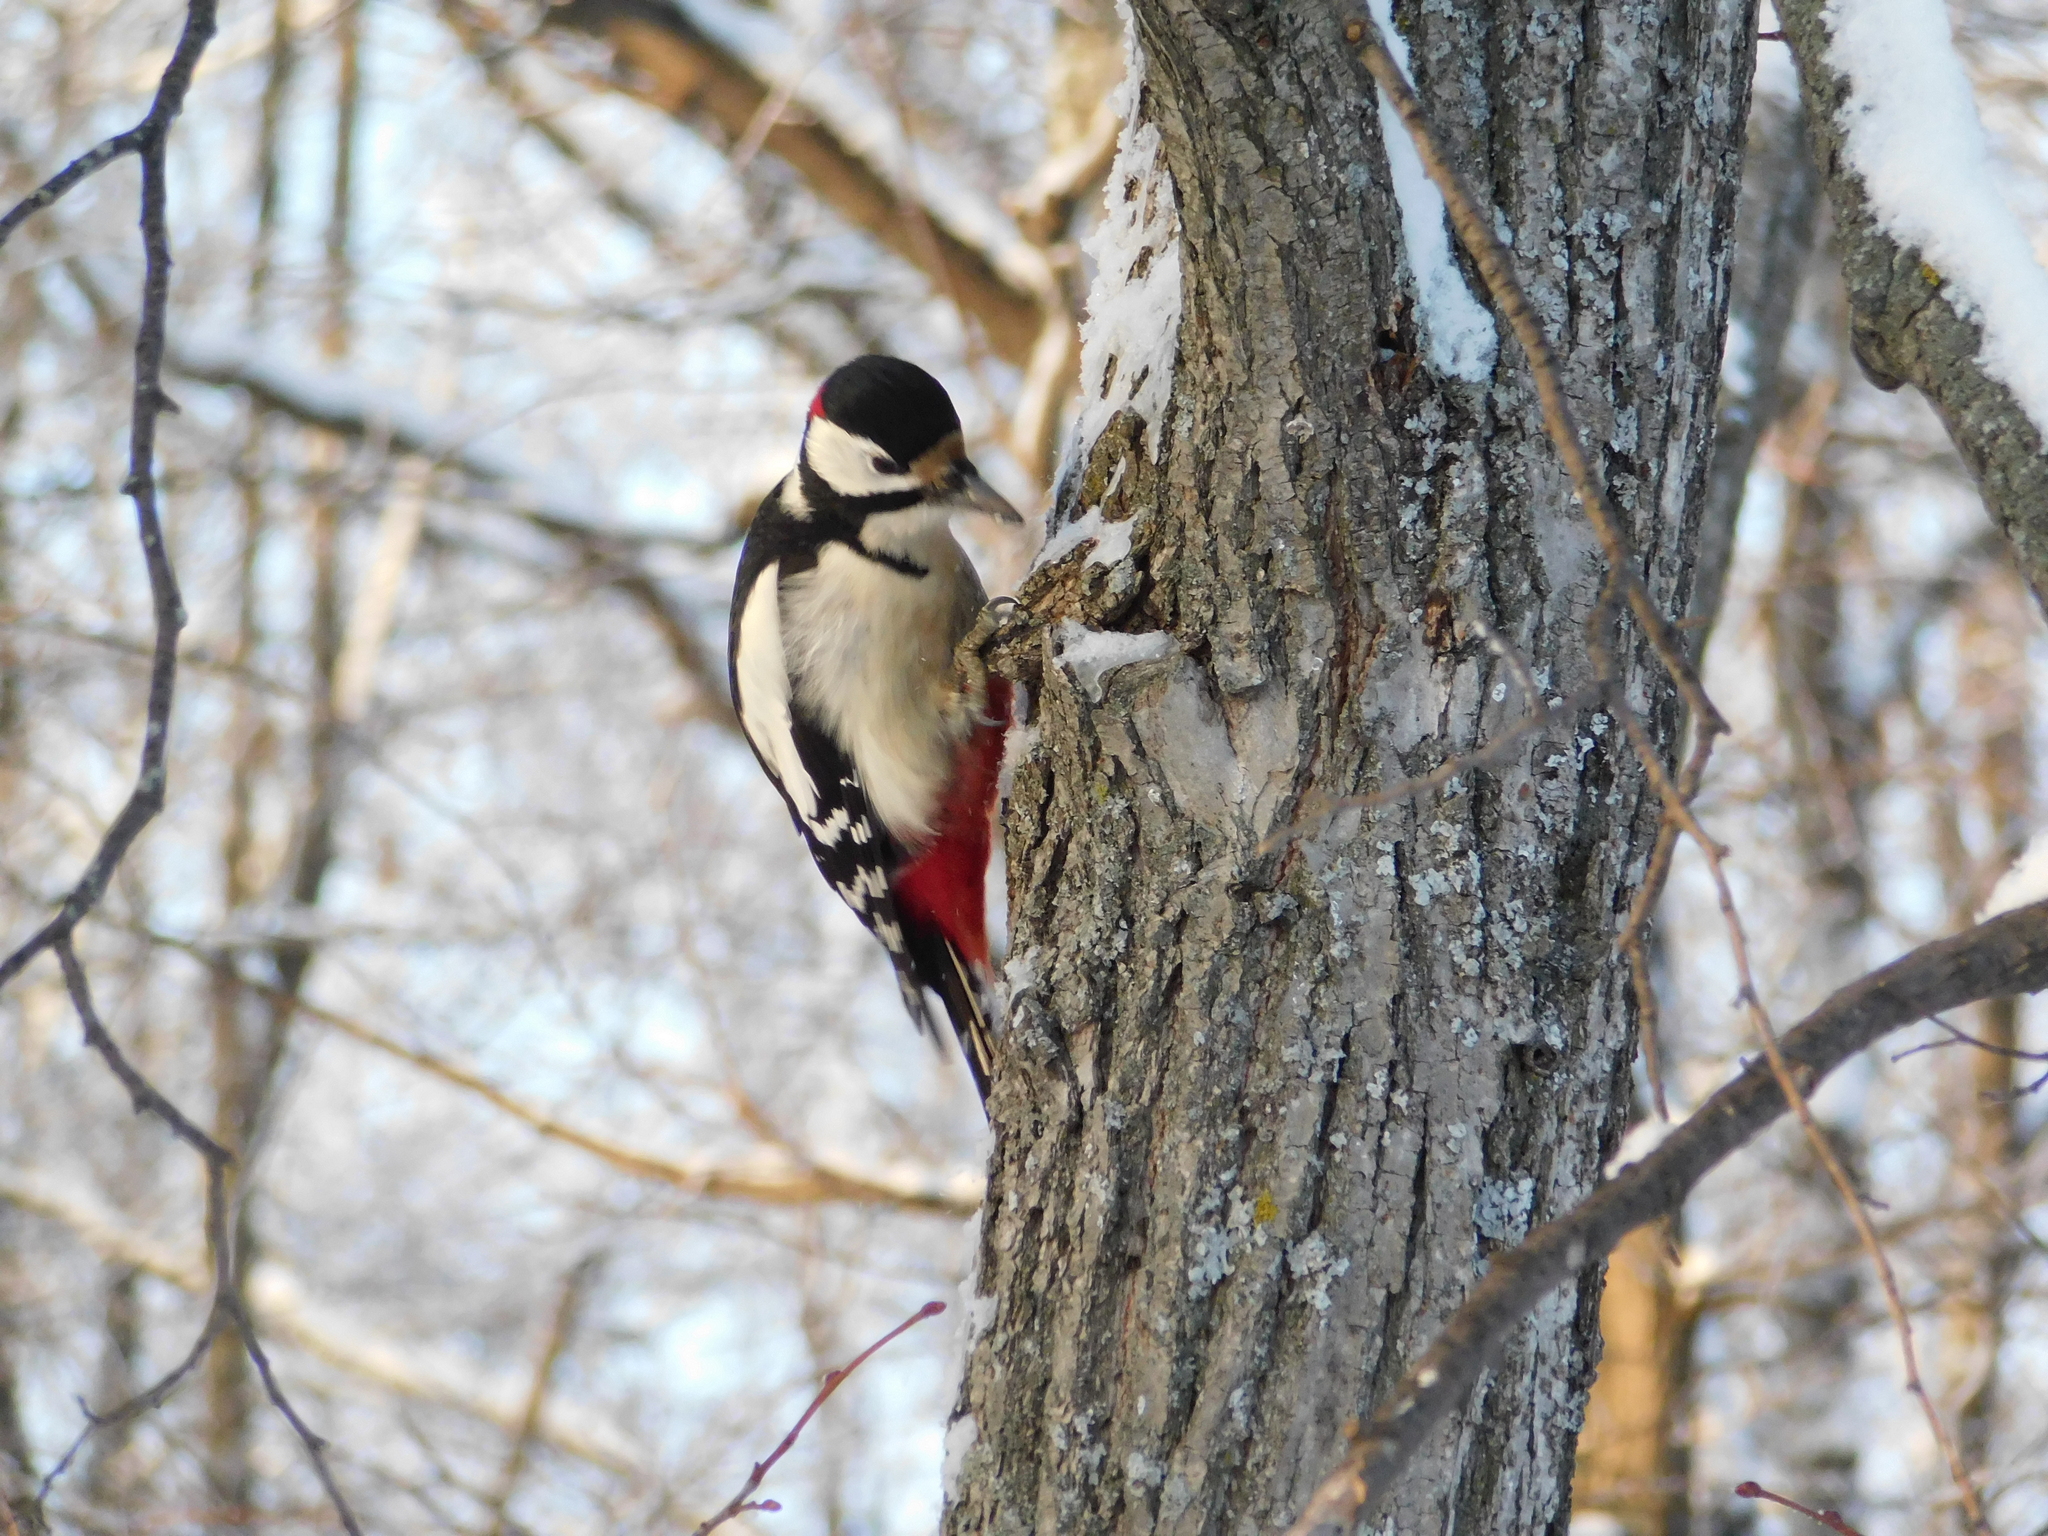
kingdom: Animalia
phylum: Chordata
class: Aves
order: Piciformes
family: Picidae
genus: Dendrocopos
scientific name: Dendrocopos major
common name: Great spotted woodpecker
